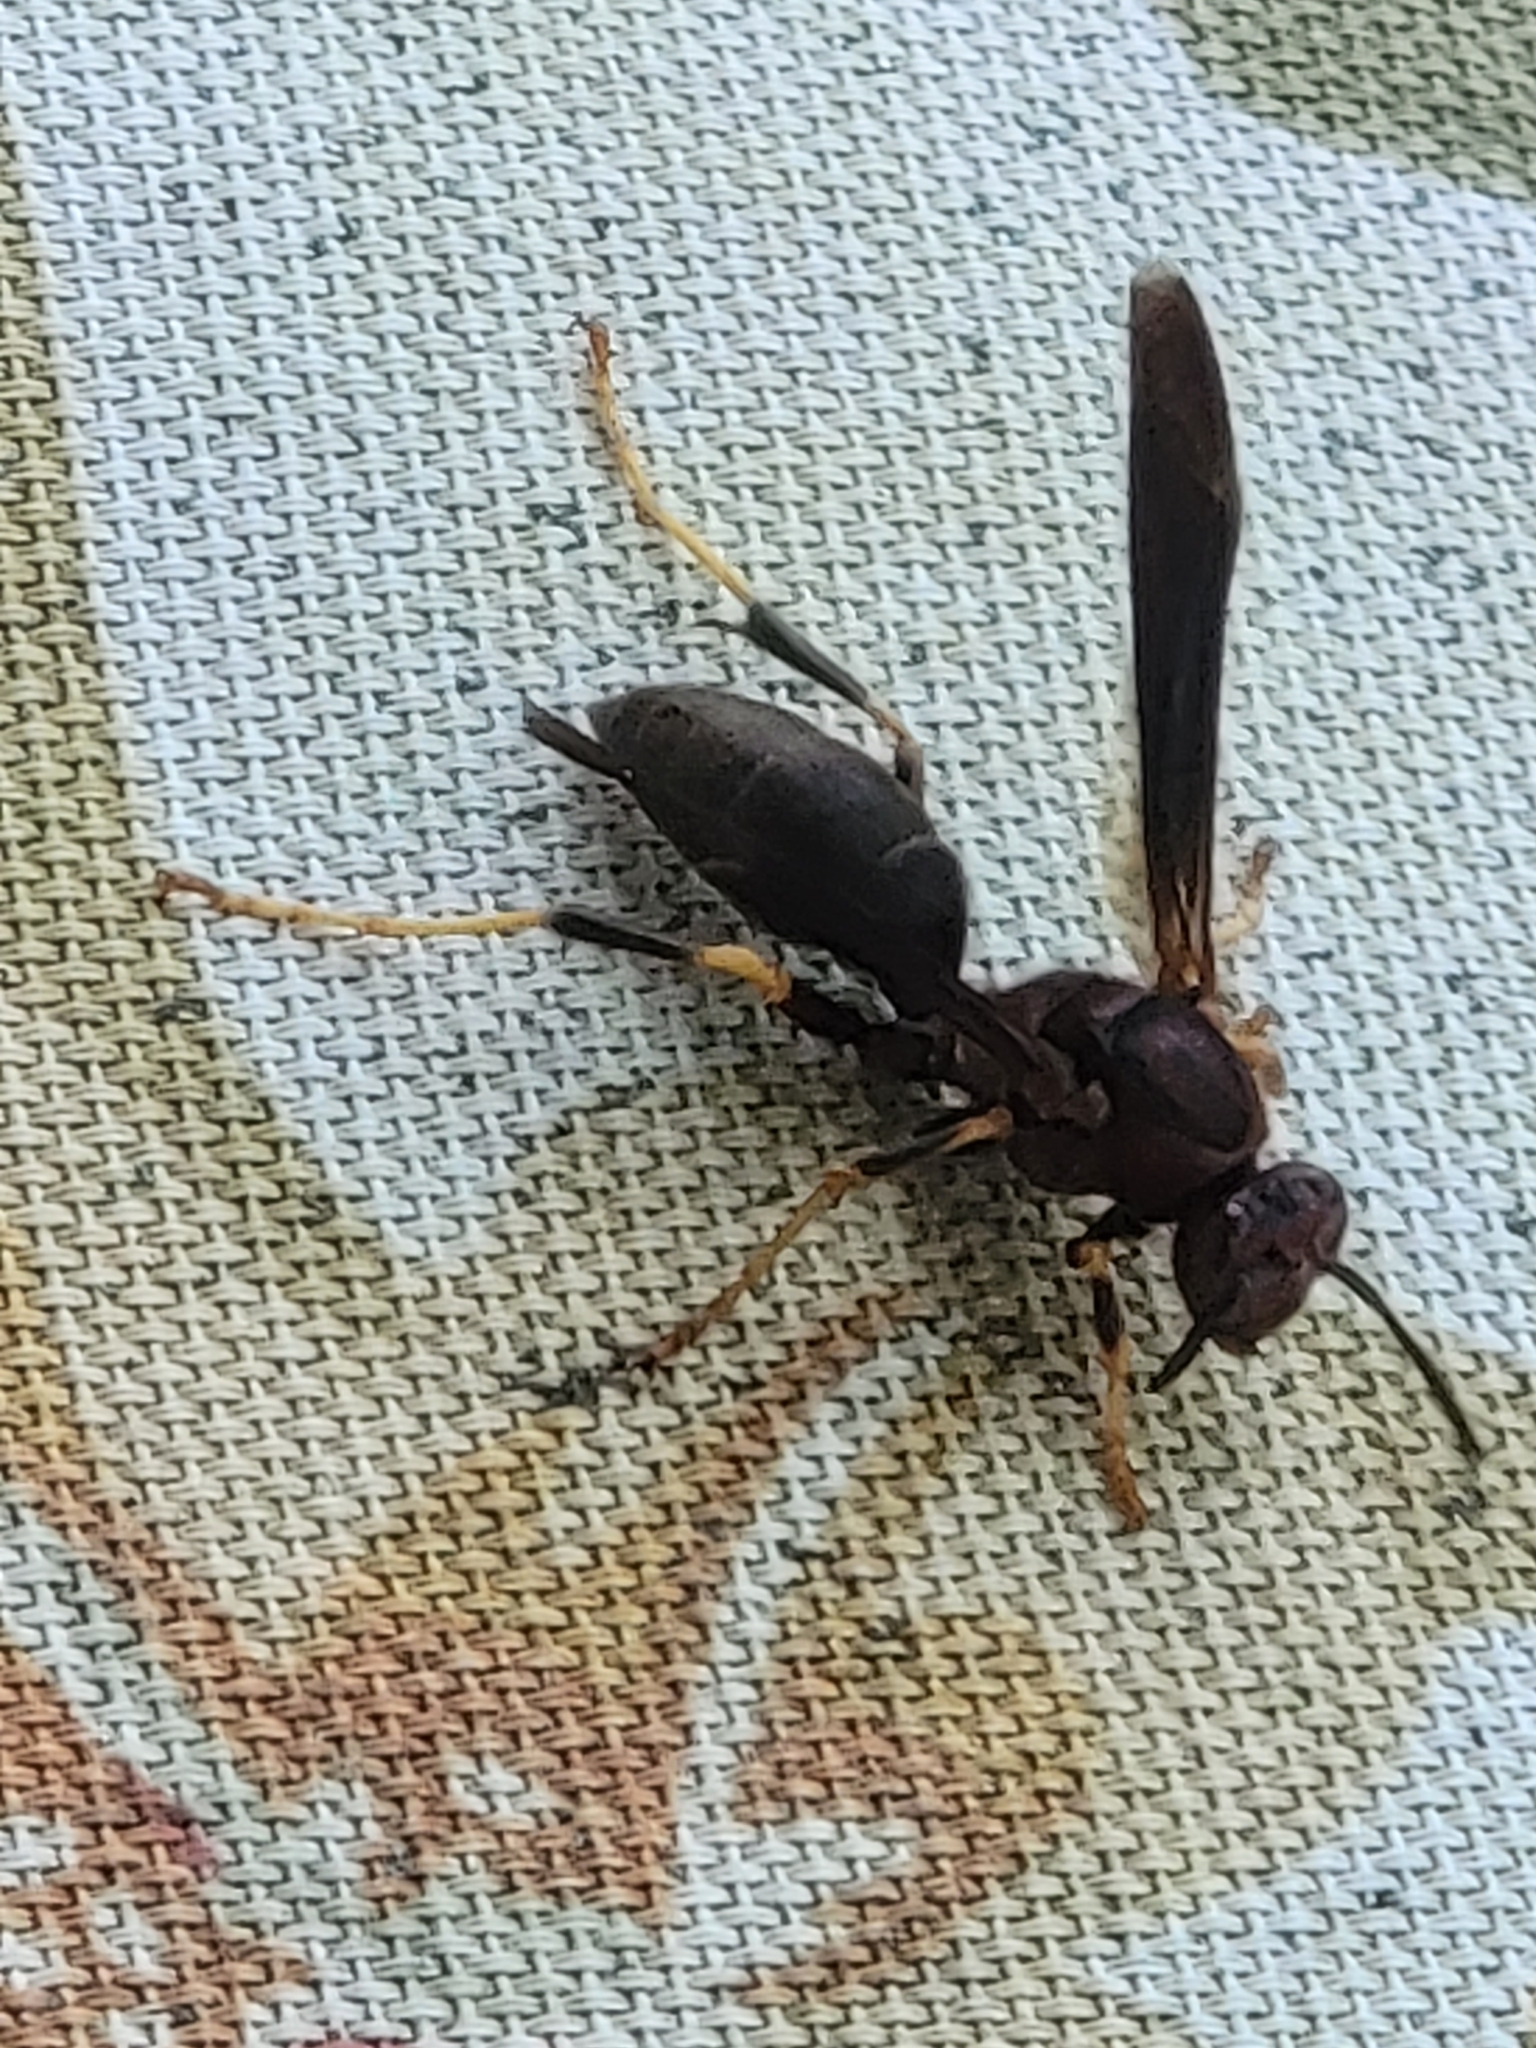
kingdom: Animalia
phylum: Arthropoda
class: Insecta
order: Hymenoptera
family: Eumenidae
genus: Polistes
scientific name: Polistes metricus
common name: Metric paper wasp
